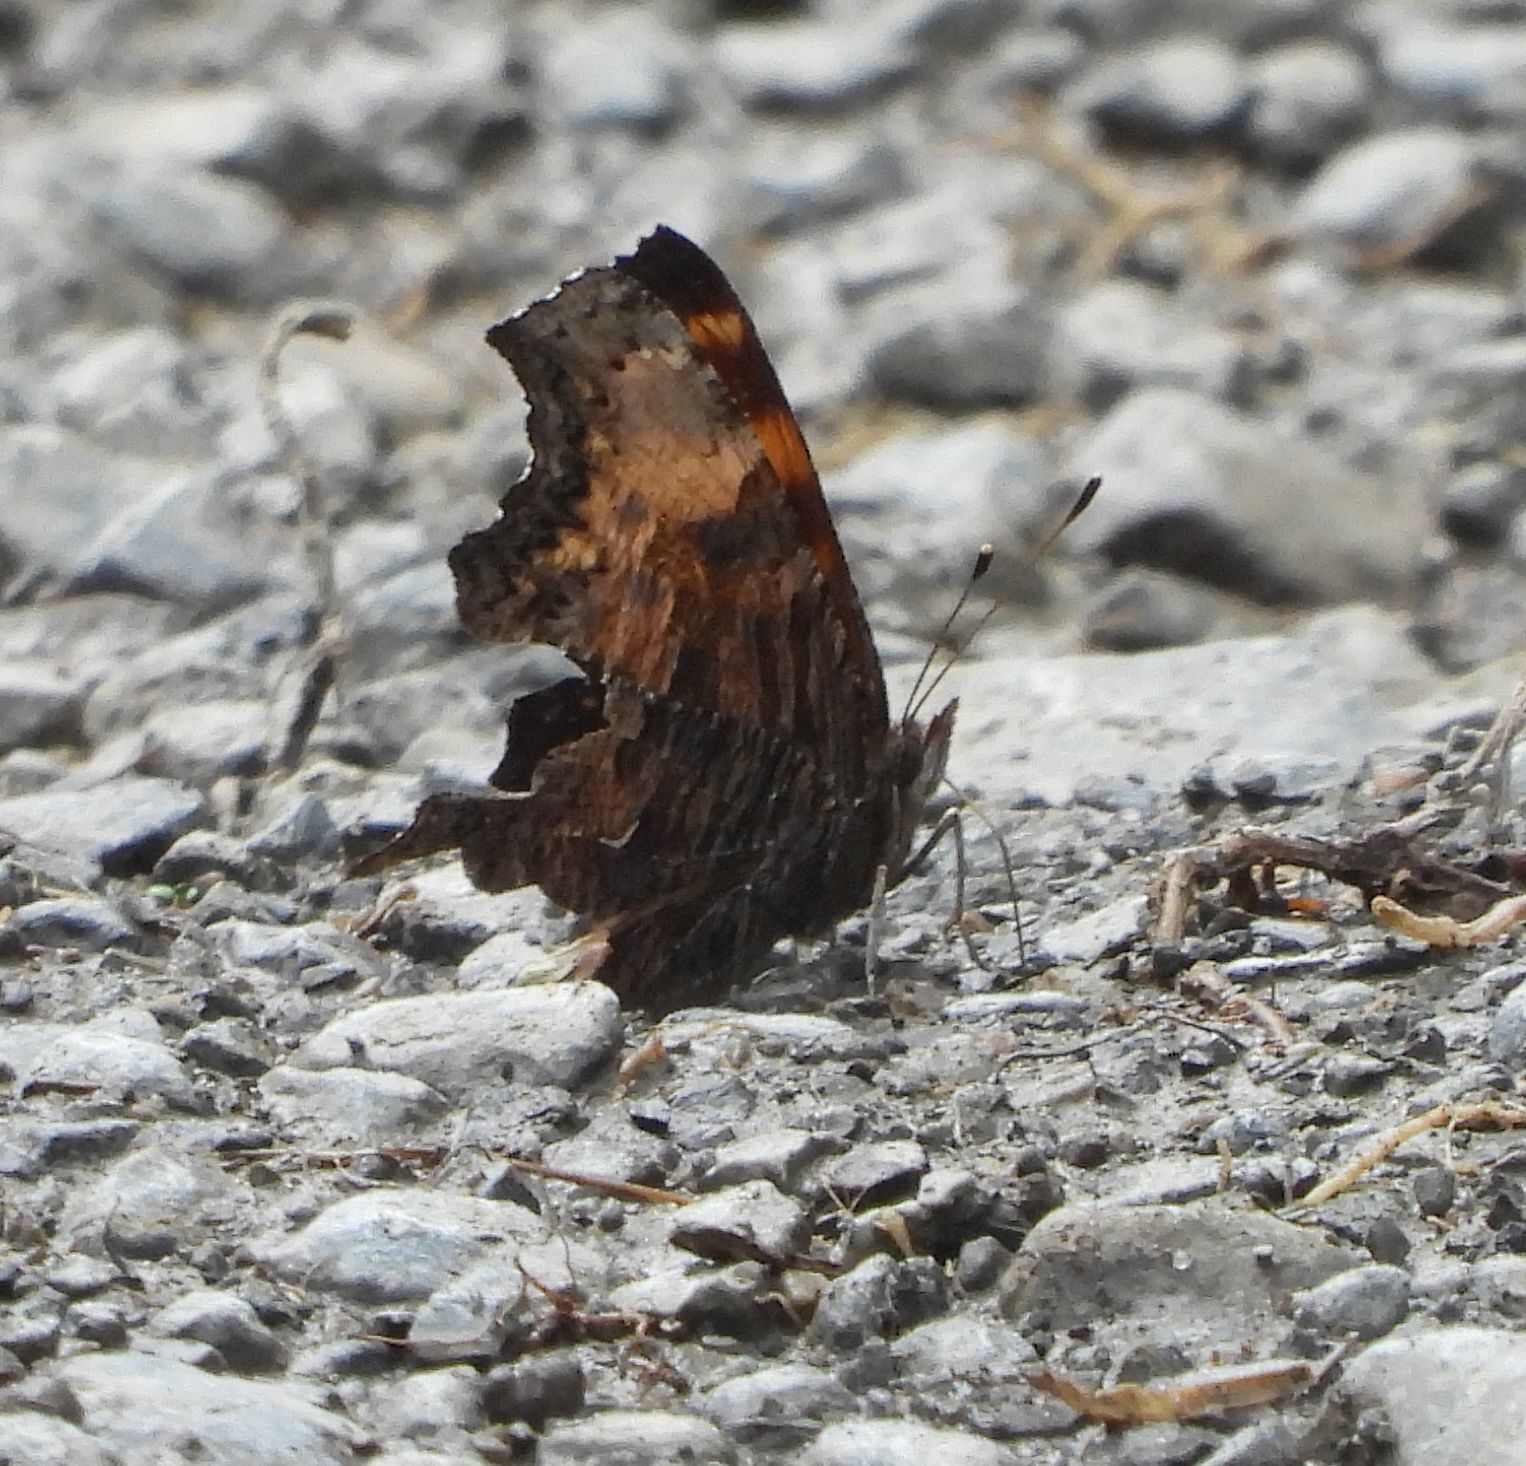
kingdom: Animalia
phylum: Arthropoda
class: Insecta
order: Lepidoptera
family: Nymphalidae
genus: Polygonia
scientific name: Polygonia progne
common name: Gray comma
